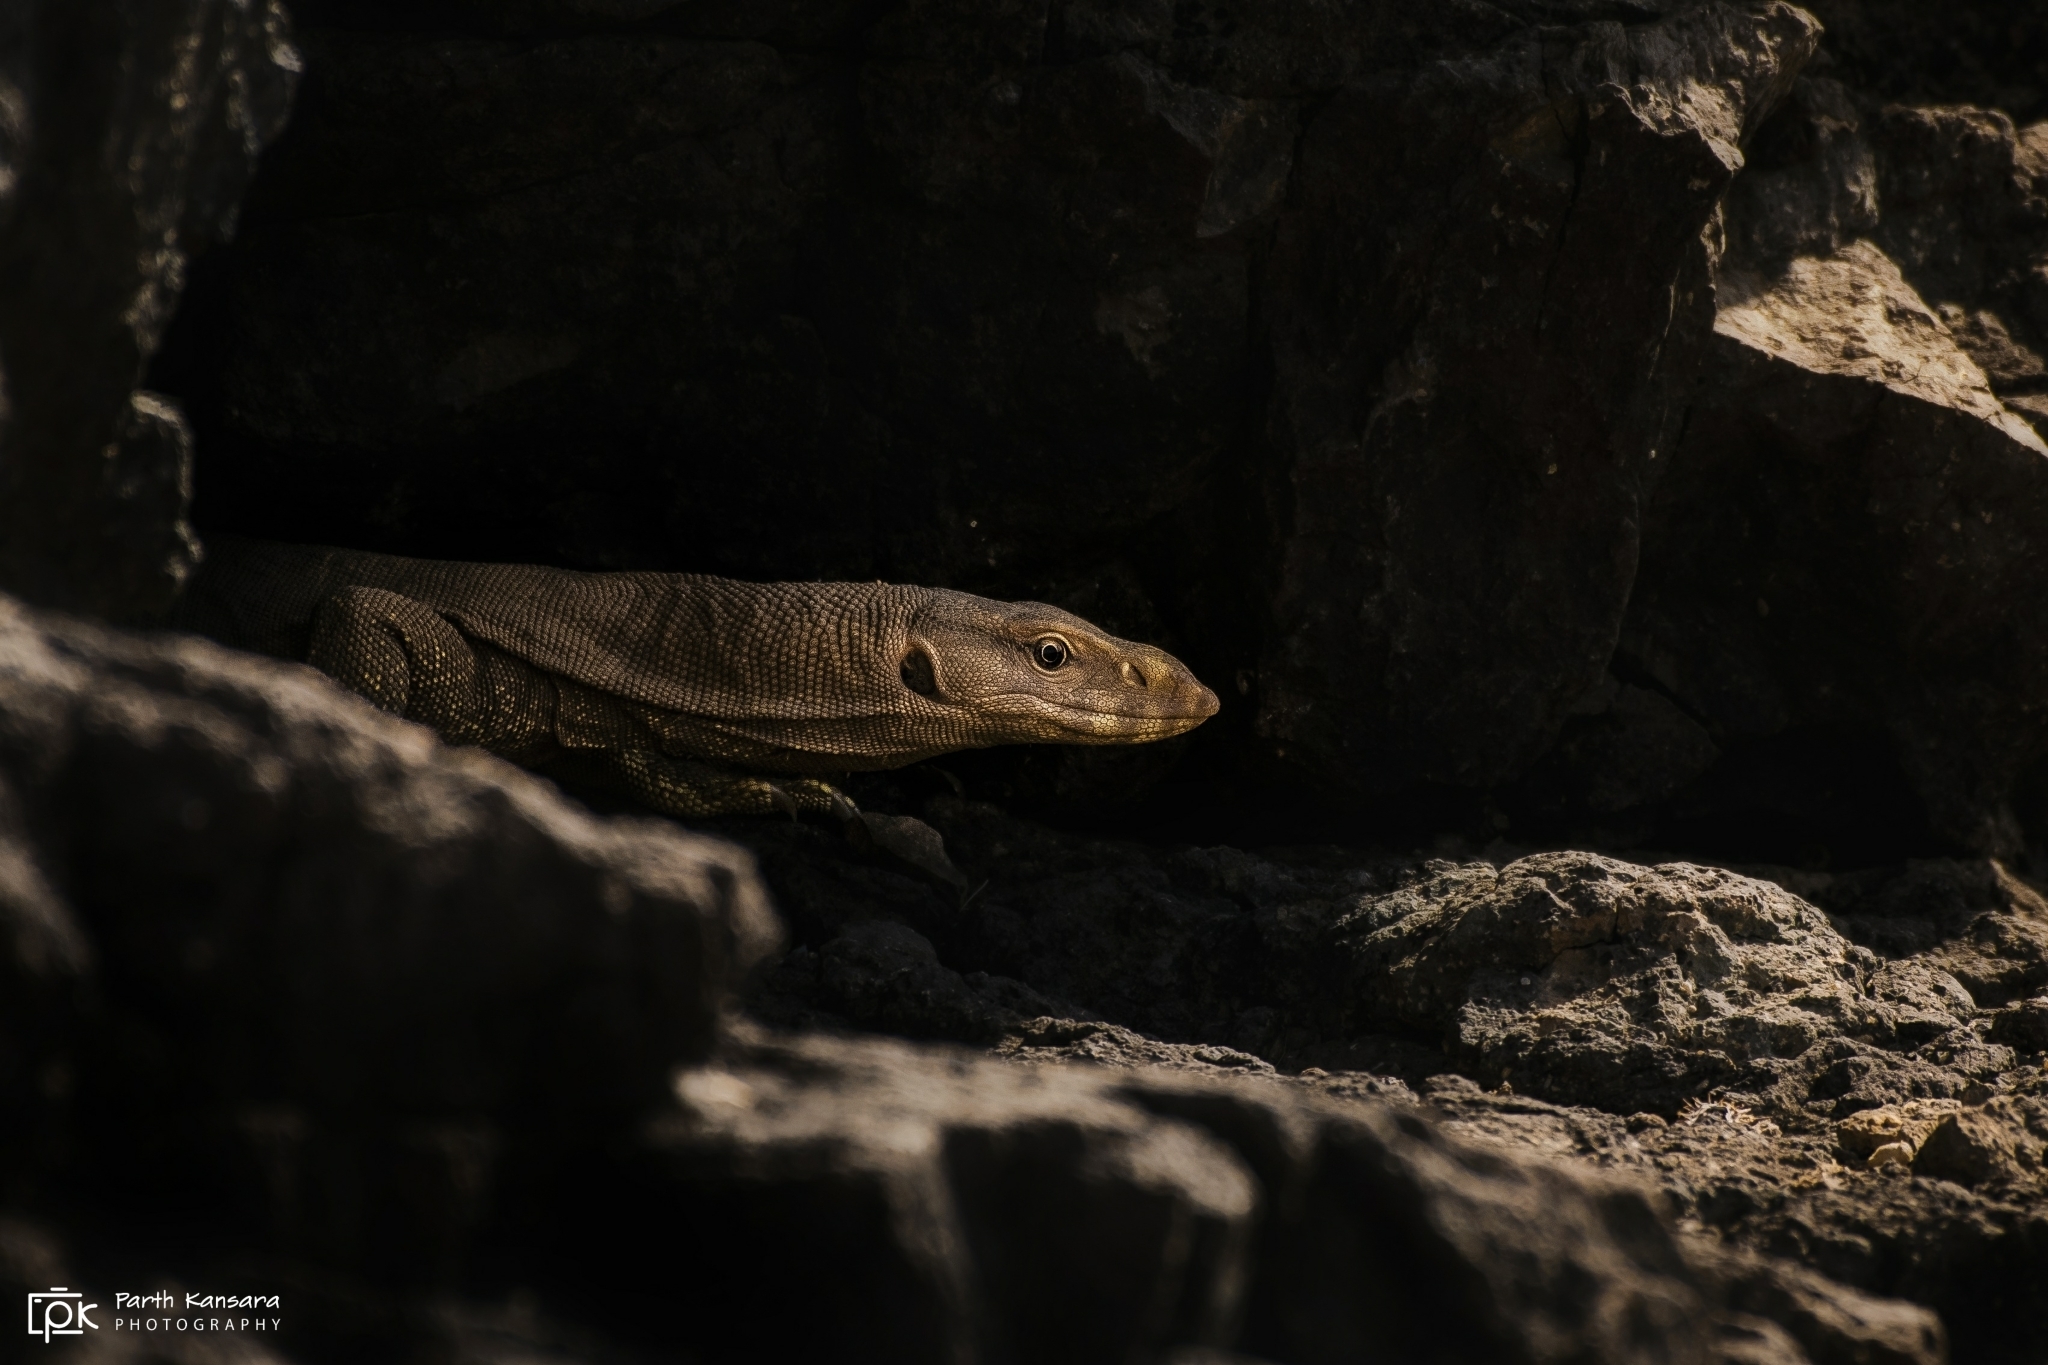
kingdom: Animalia
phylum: Chordata
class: Squamata
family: Varanidae
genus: Varanus
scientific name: Varanus bengalensis
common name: Bengal monitor
